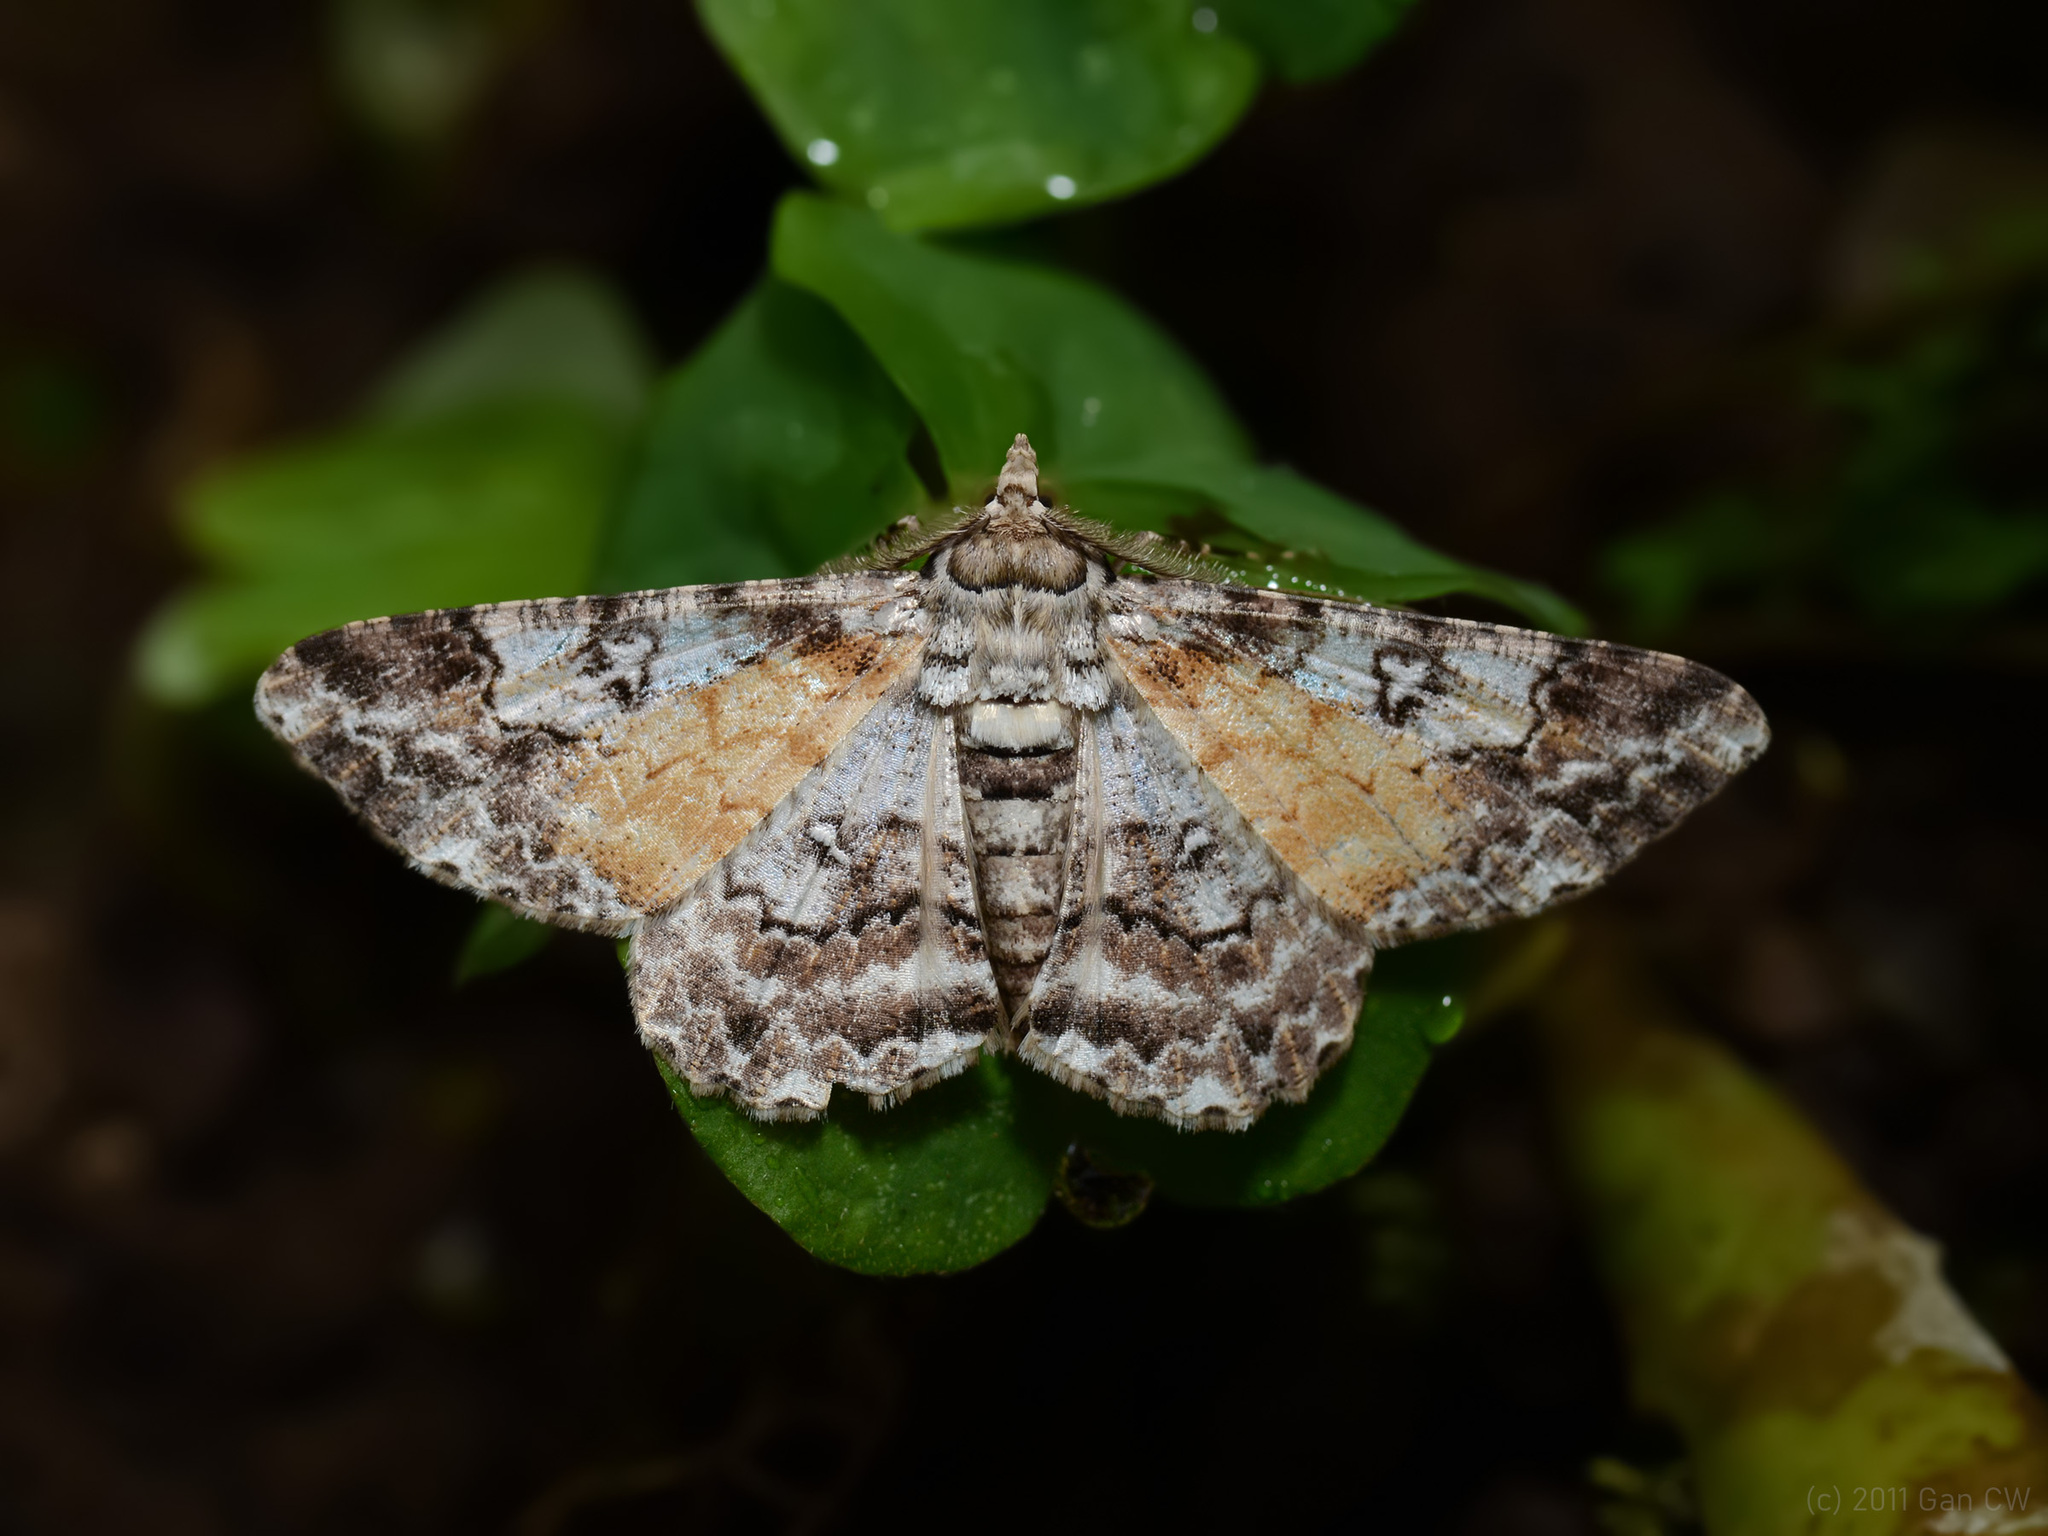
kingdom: Animalia
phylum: Arthropoda
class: Insecta
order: Lepidoptera
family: Geometridae
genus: Cleora
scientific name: Cleora fraterna
